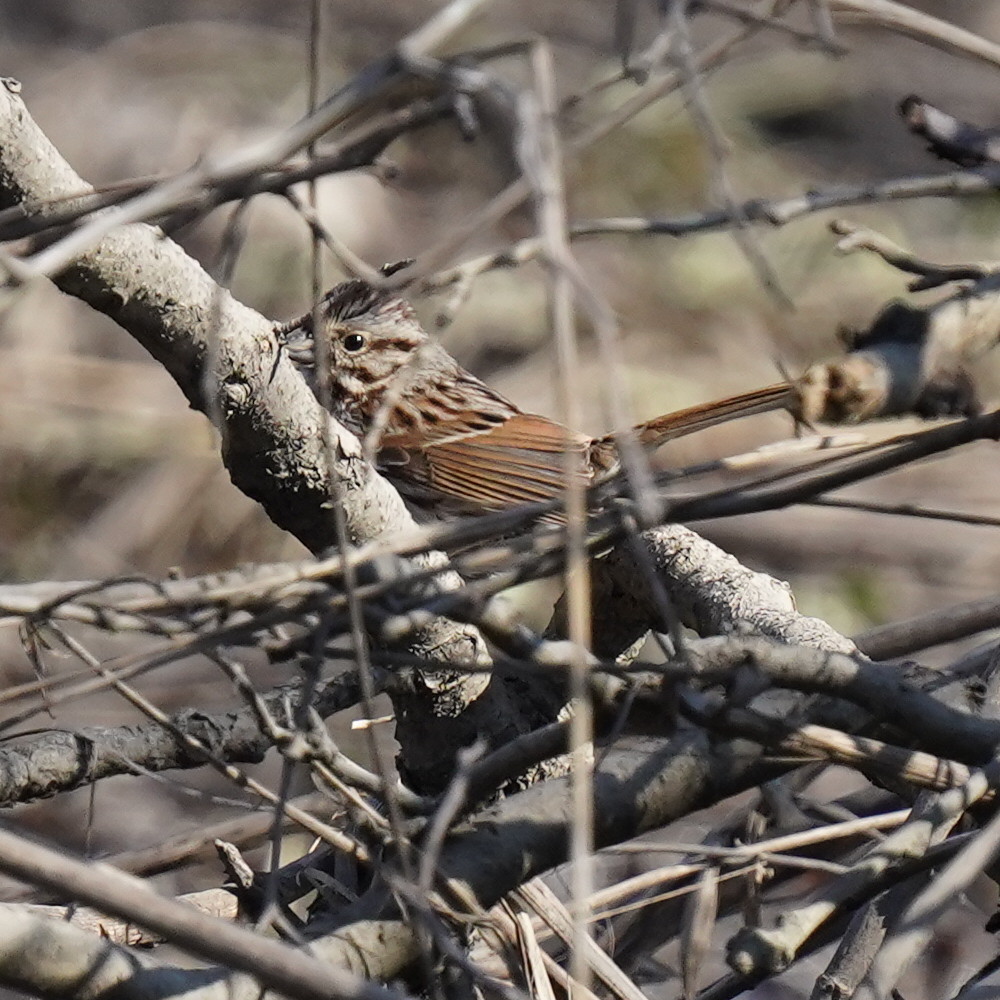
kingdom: Animalia
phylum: Chordata
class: Aves
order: Passeriformes
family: Passerellidae
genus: Melospiza
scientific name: Melospiza melodia
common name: Song sparrow
